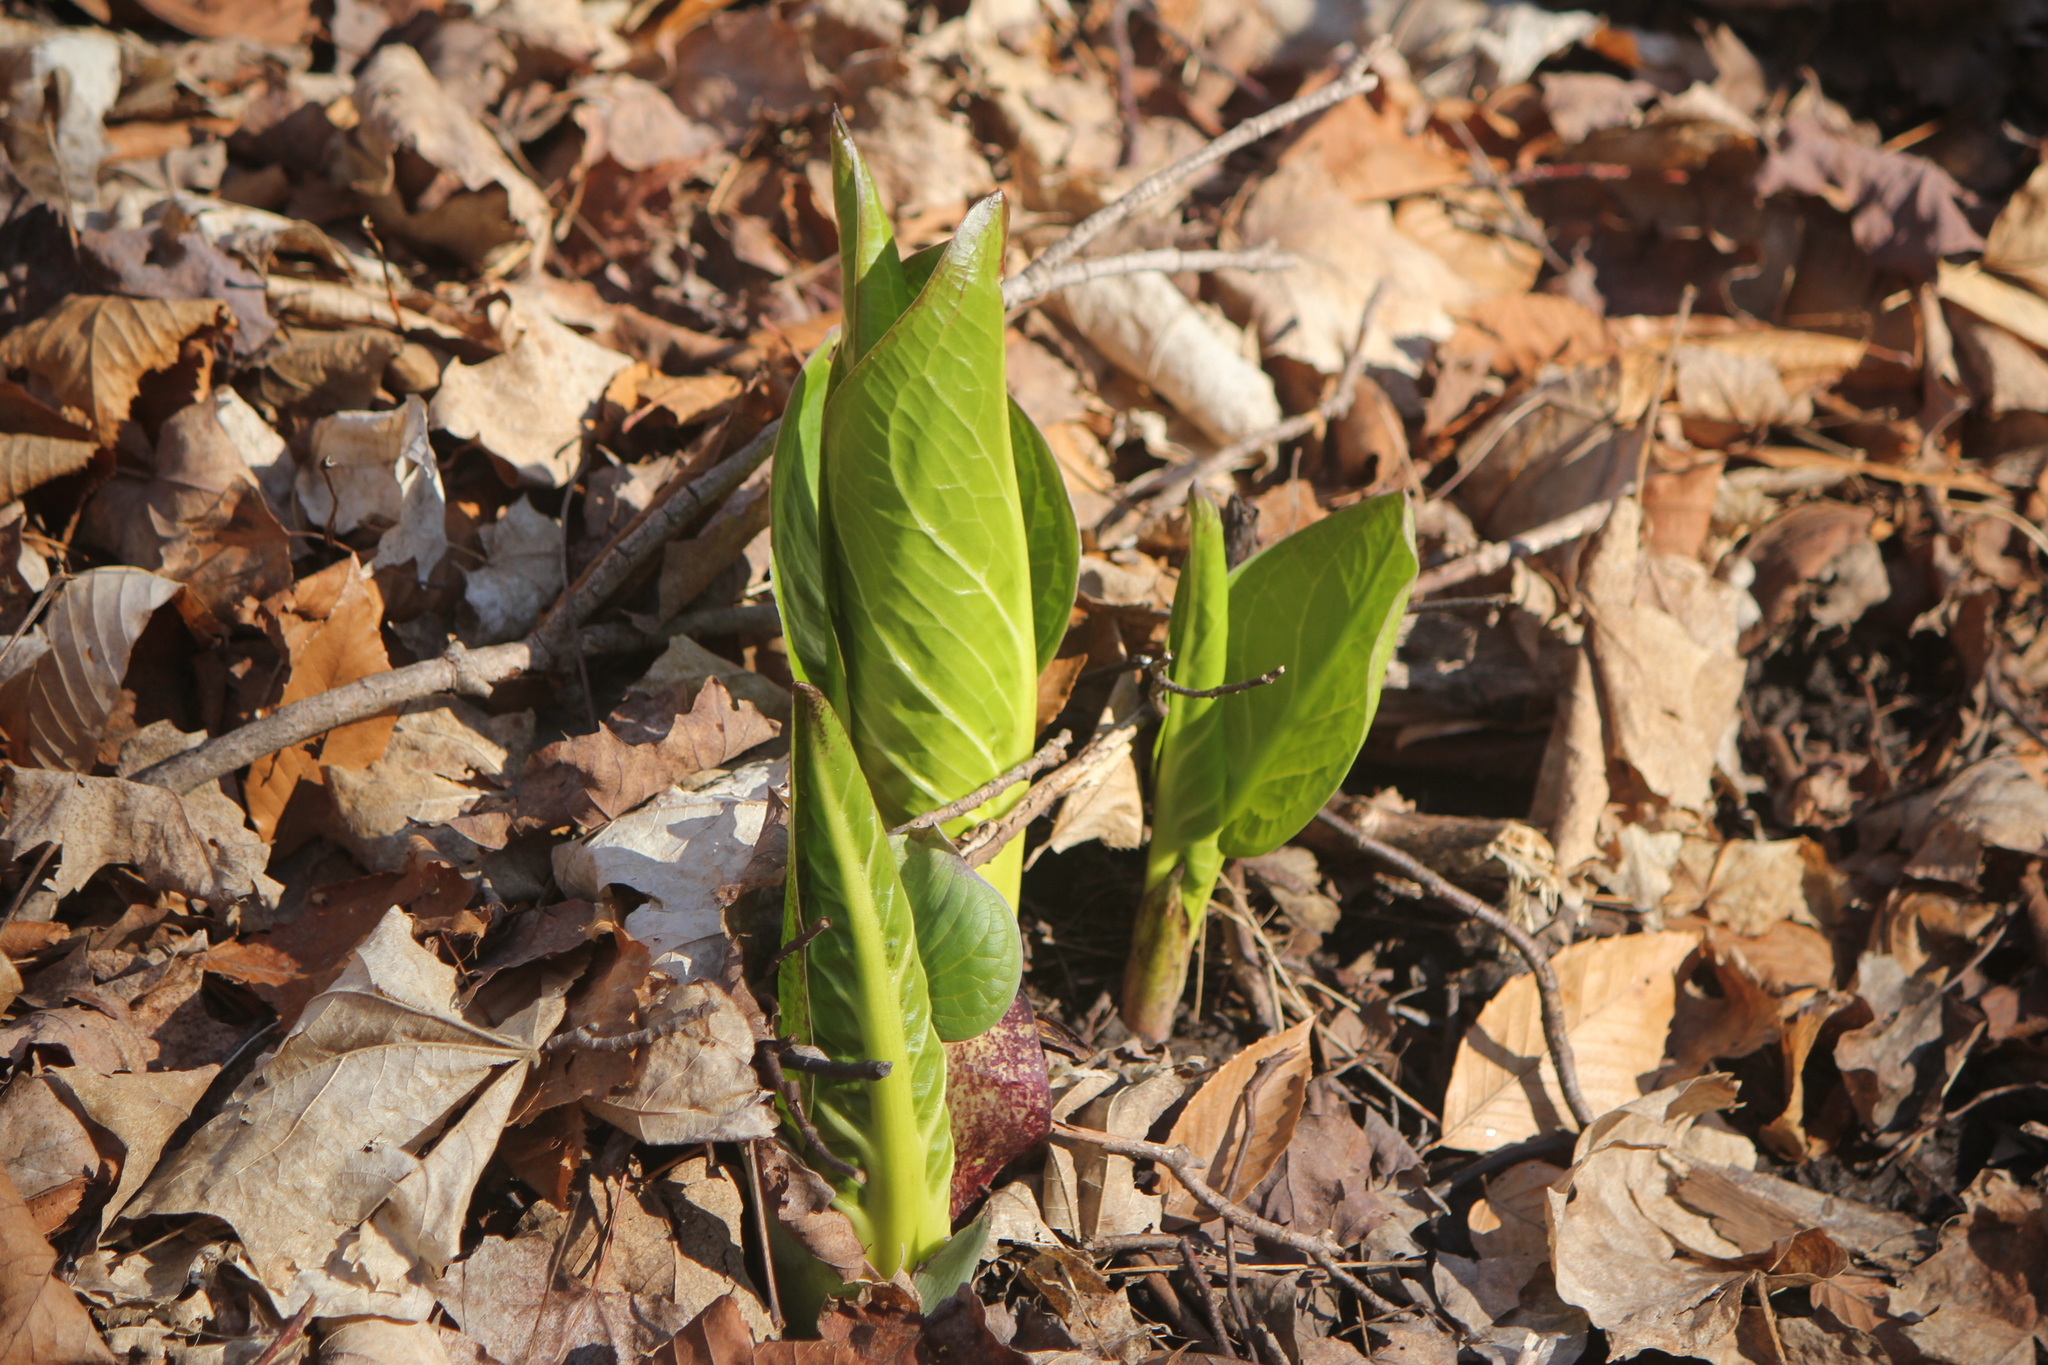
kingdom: Plantae
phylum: Tracheophyta
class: Liliopsida
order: Alismatales
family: Araceae
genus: Symplocarpus
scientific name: Symplocarpus foetidus
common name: Eastern skunk cabbage
